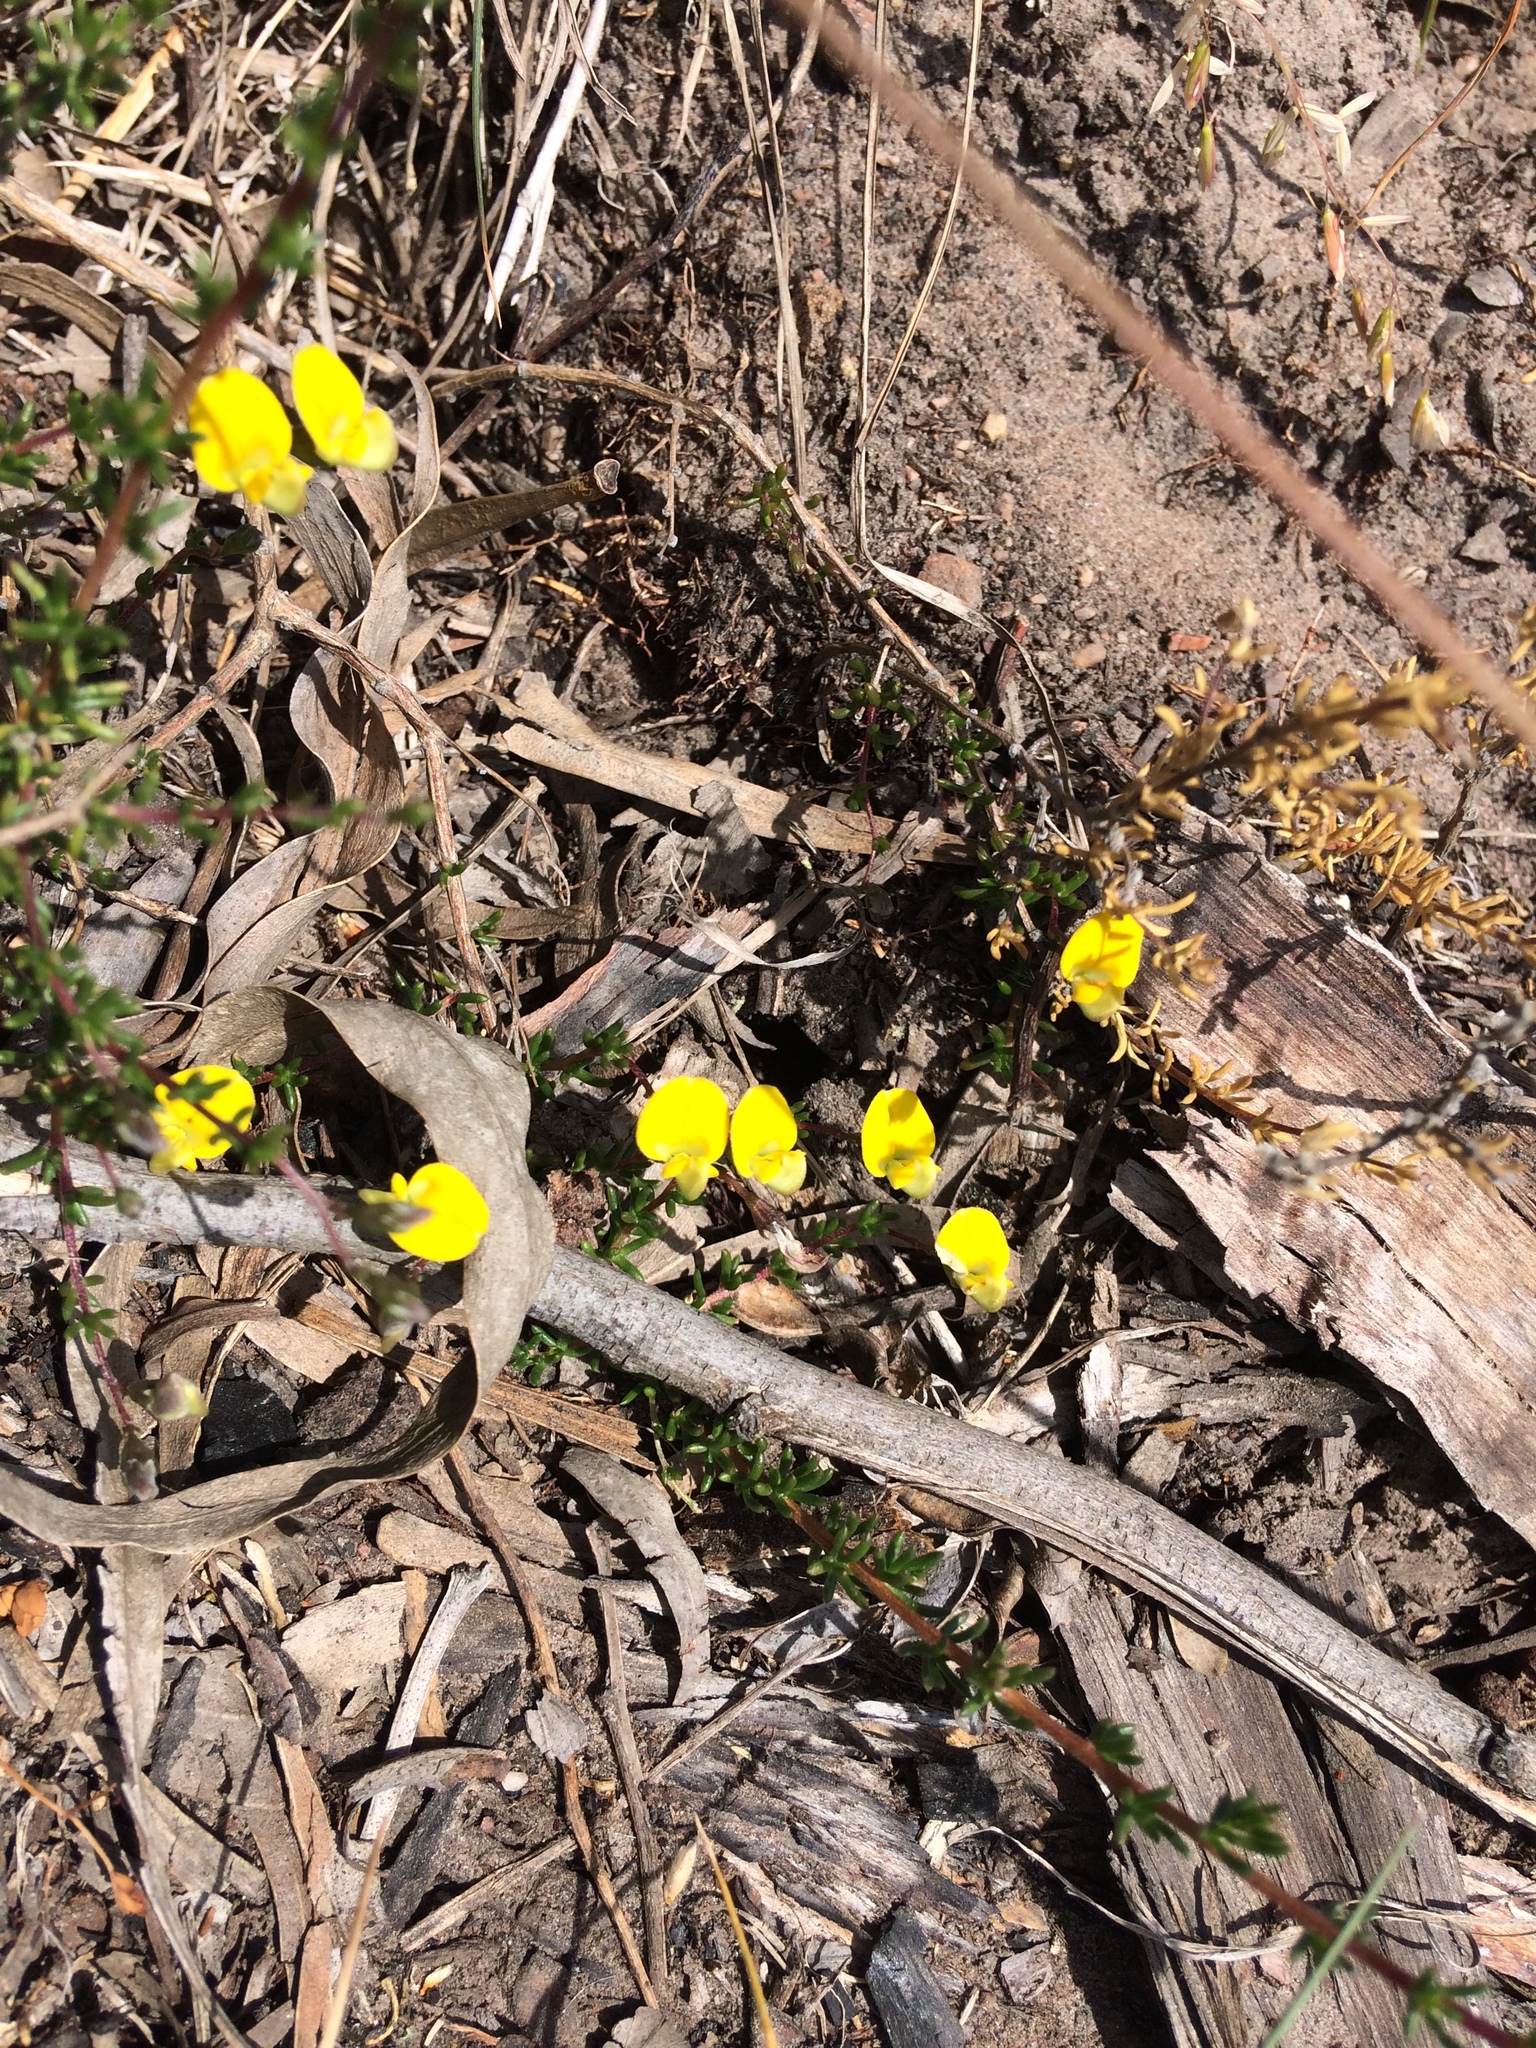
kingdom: Plantae
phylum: Tracheophyta
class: Magnoliopsida
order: Fabales
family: Fabaceae
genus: Aspalathus
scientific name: Aspalathus biflora
